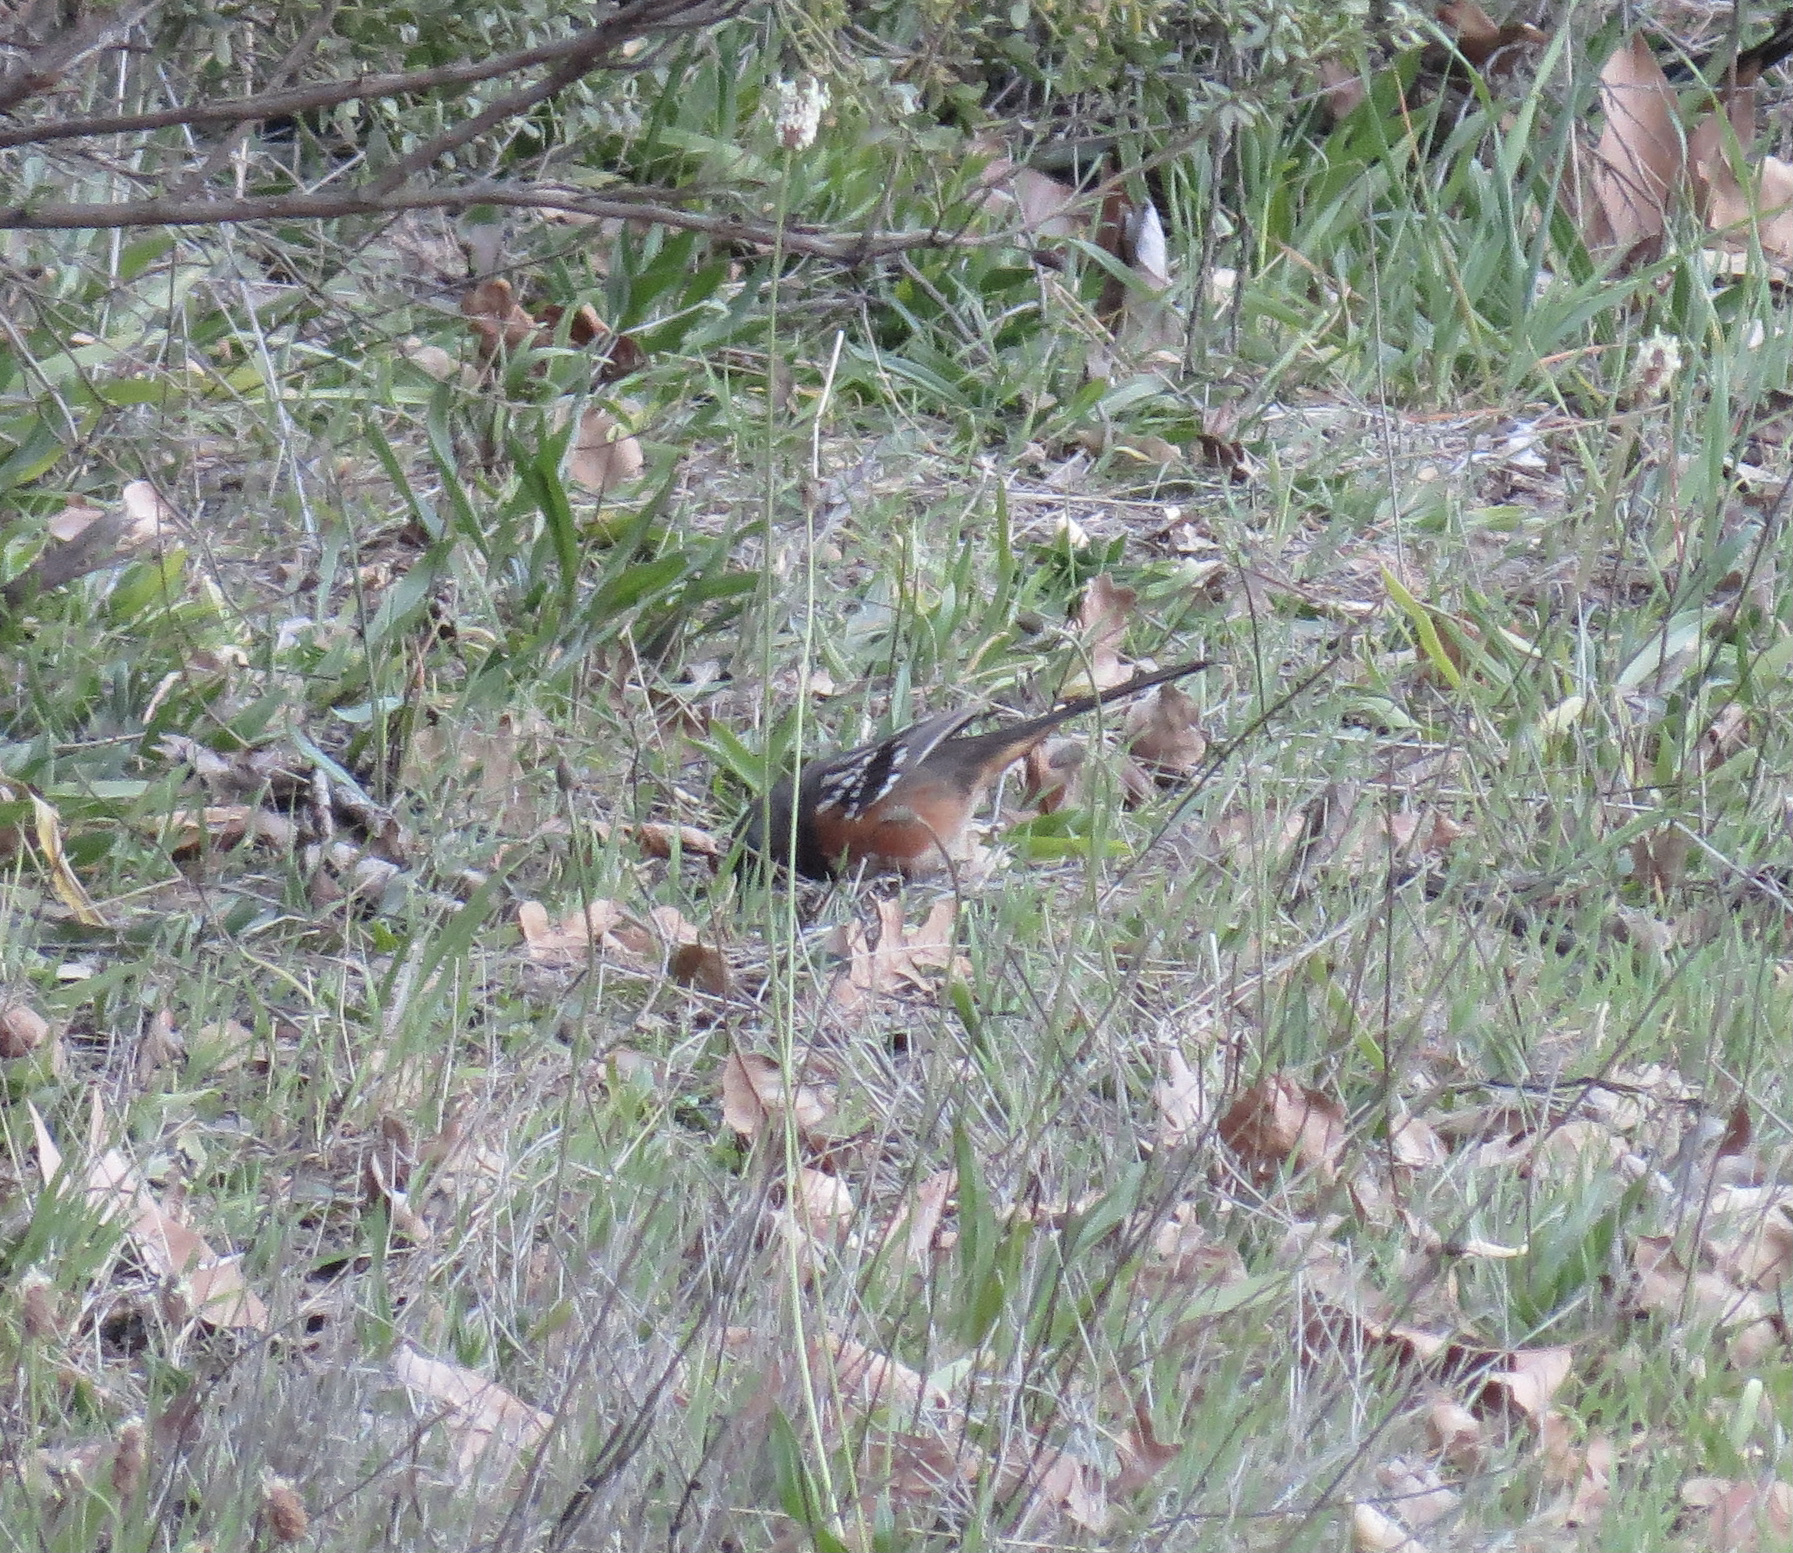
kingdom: Animalia
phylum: Chordata
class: Aves
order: Passeriformes
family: Passerellidae
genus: Pipilo
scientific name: Pipilo maculatus
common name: Spotted towhee
